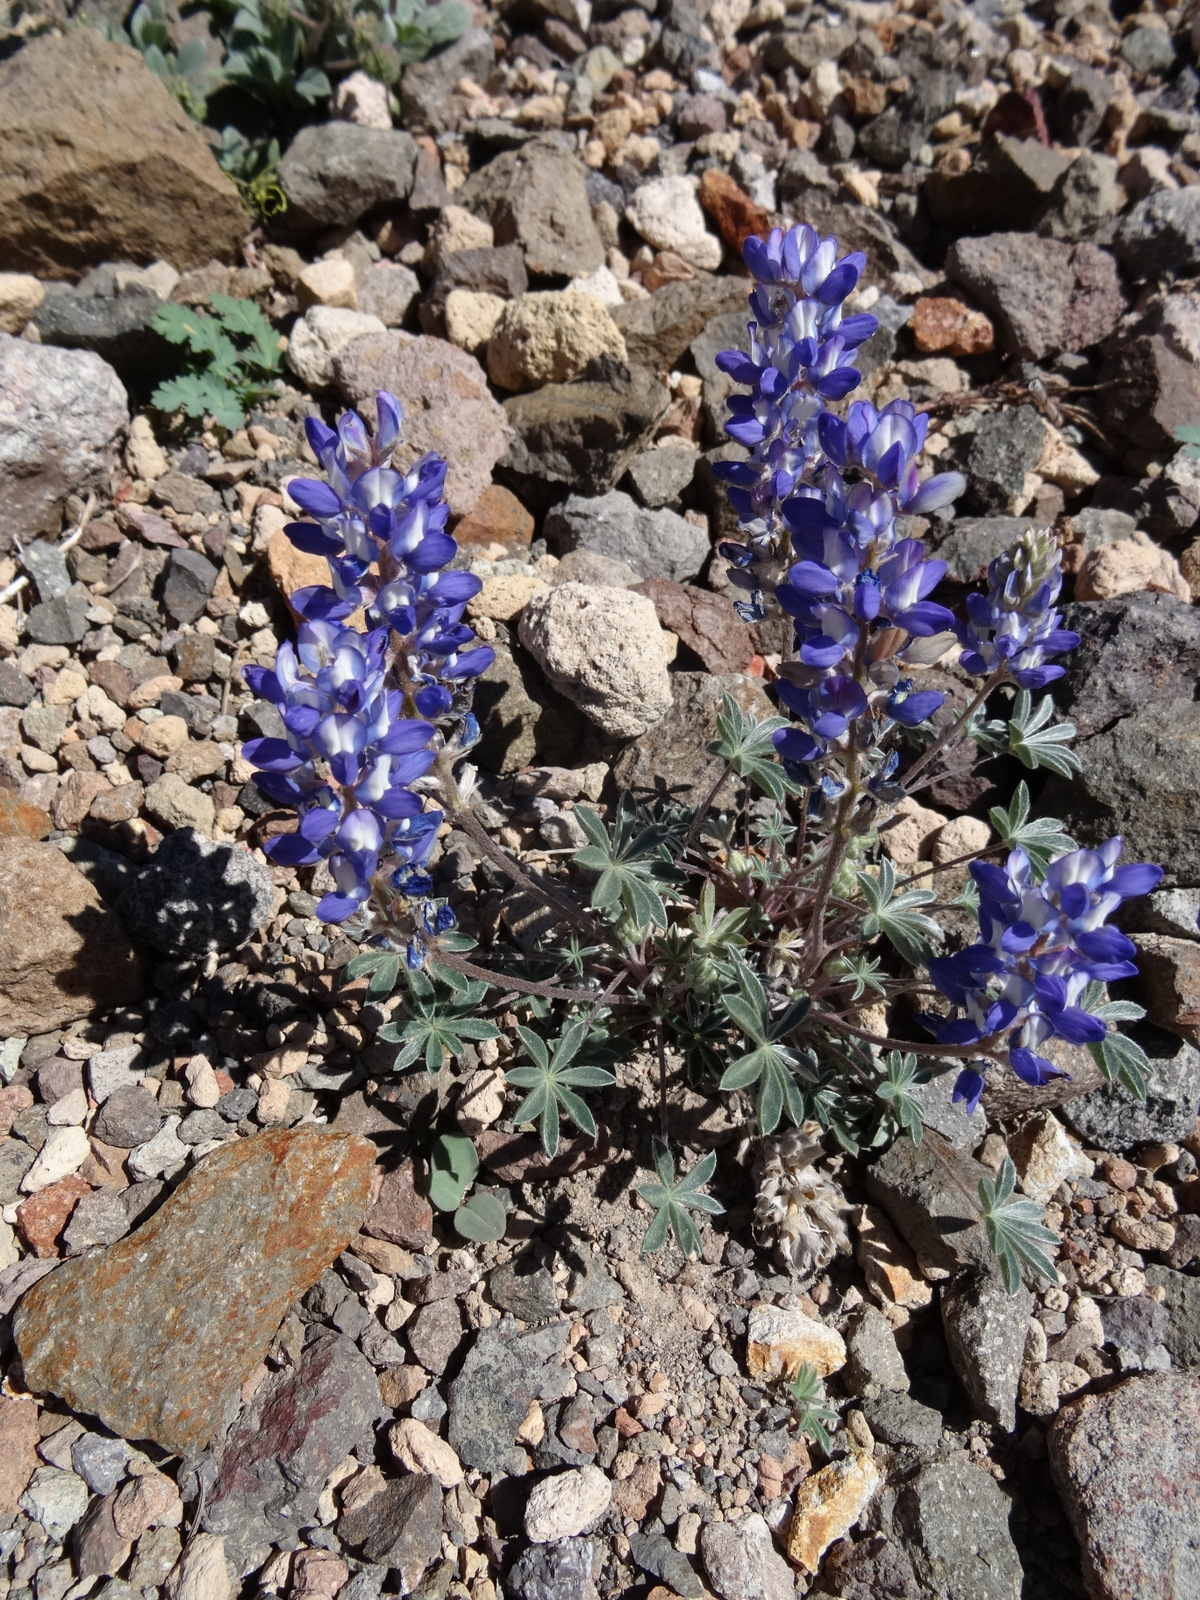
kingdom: Plantae
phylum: Tracheophyta
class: Magnoliopsida
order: Fabales
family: Fabaceae
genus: Lupinus
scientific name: Lupinus lepidus
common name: Prairie lupine
